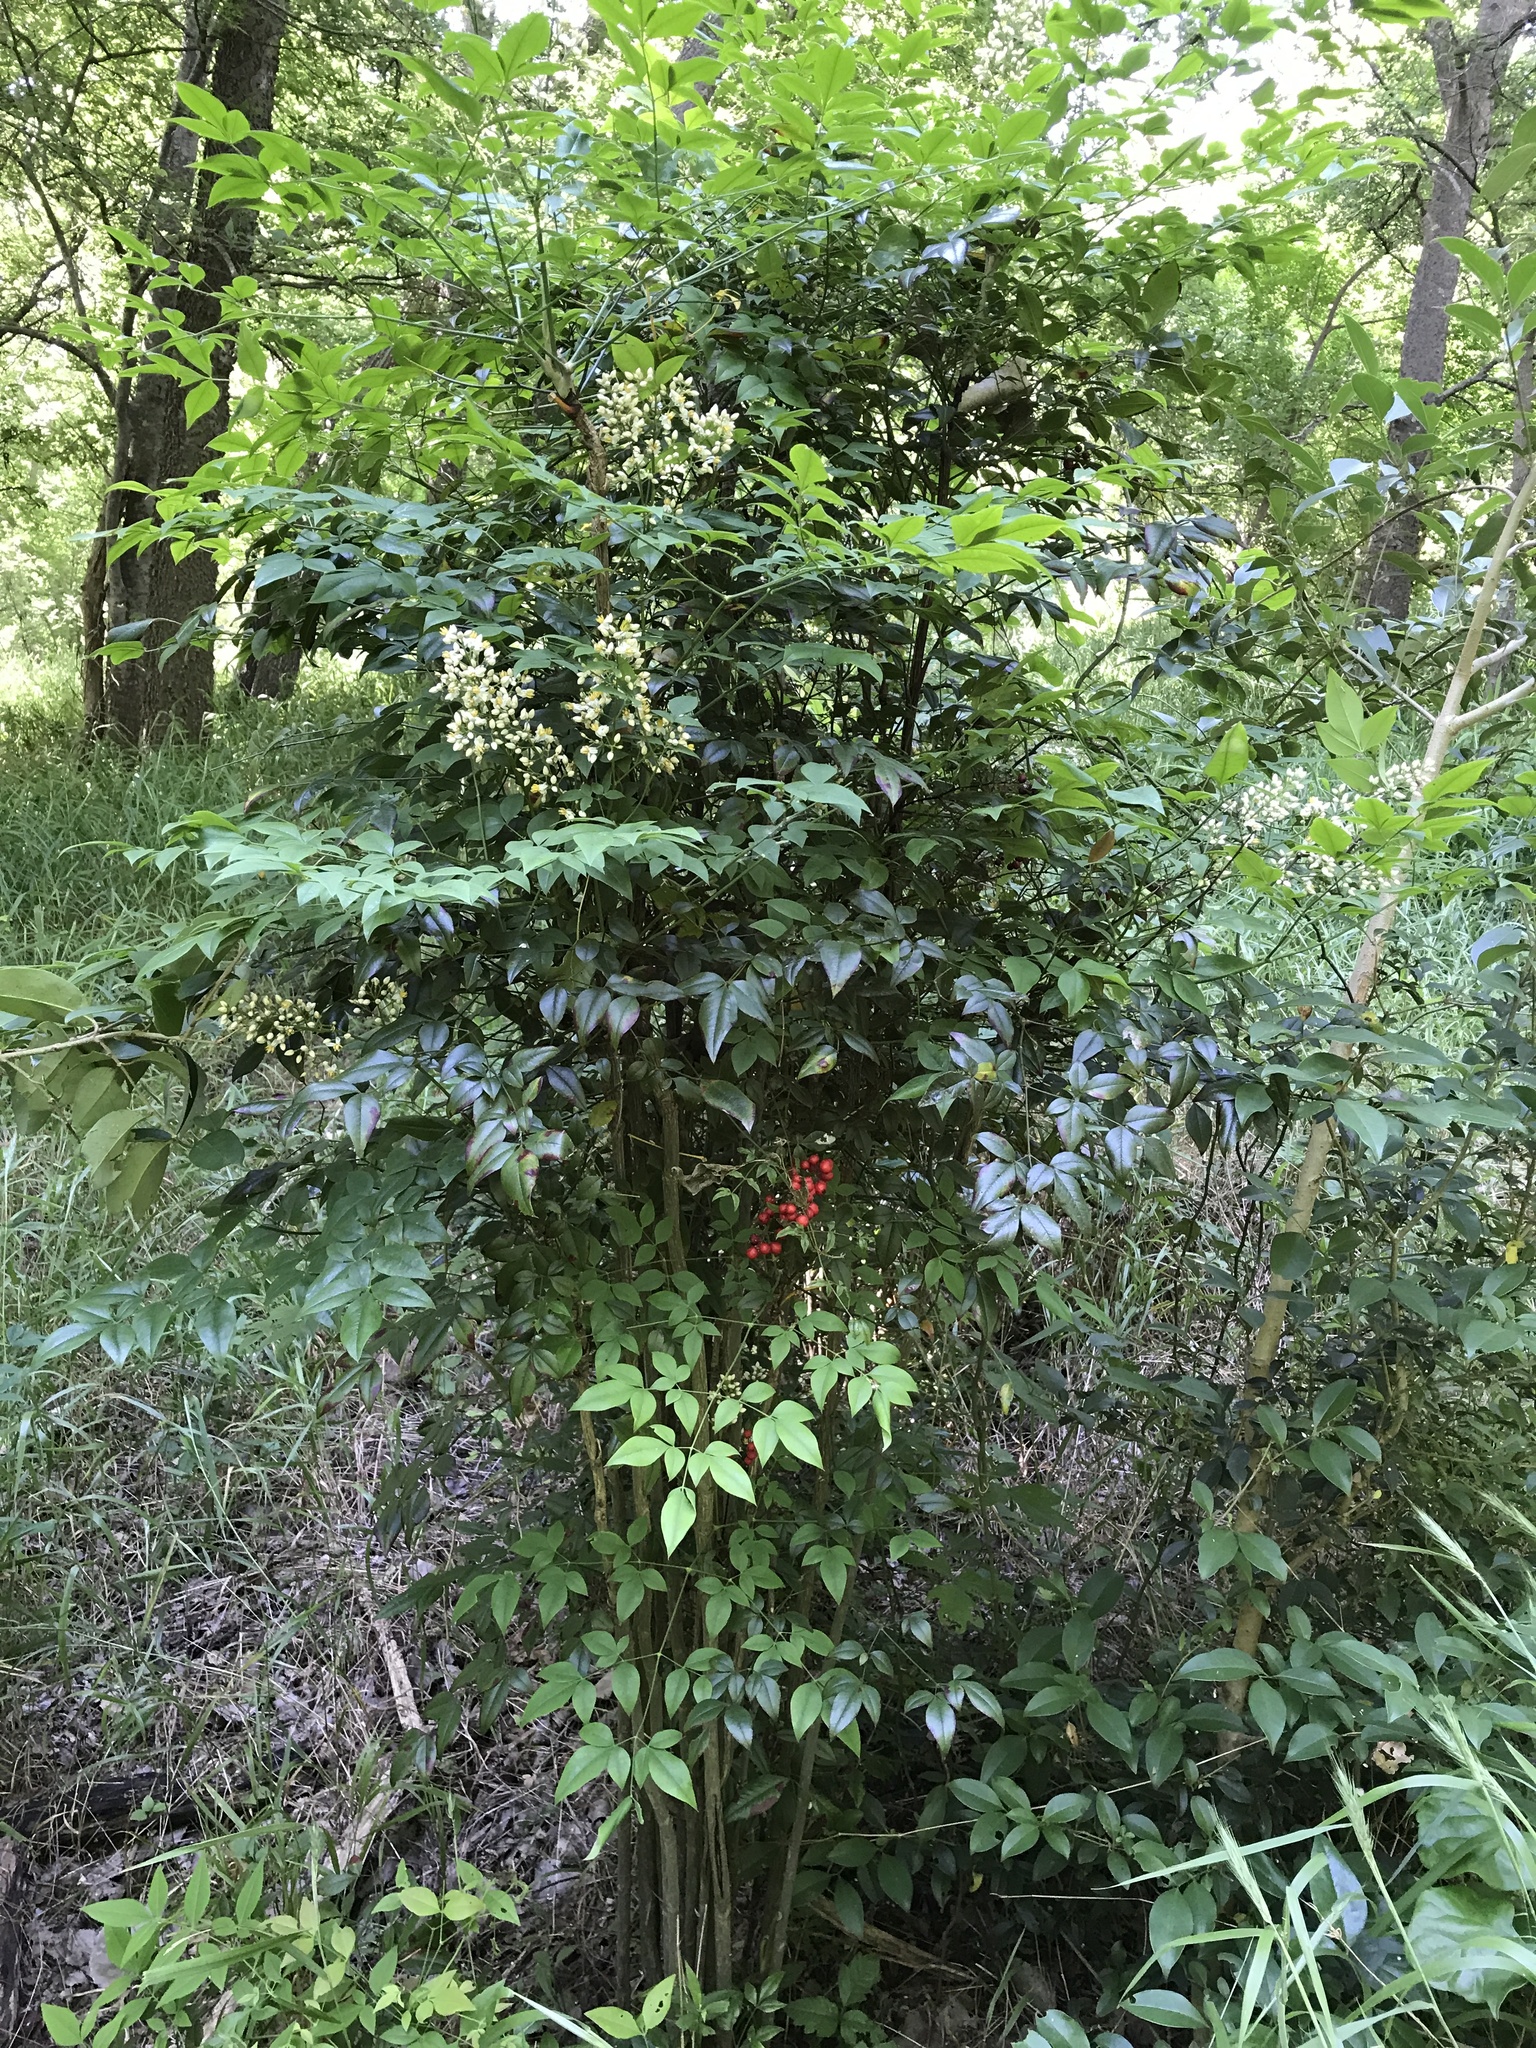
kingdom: Plantae
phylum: Tracheophyta
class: Magnoliopsida
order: Ranunculales
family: Berberidaceae
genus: Nandina
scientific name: Nandina domestica
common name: Sacred bamboo
